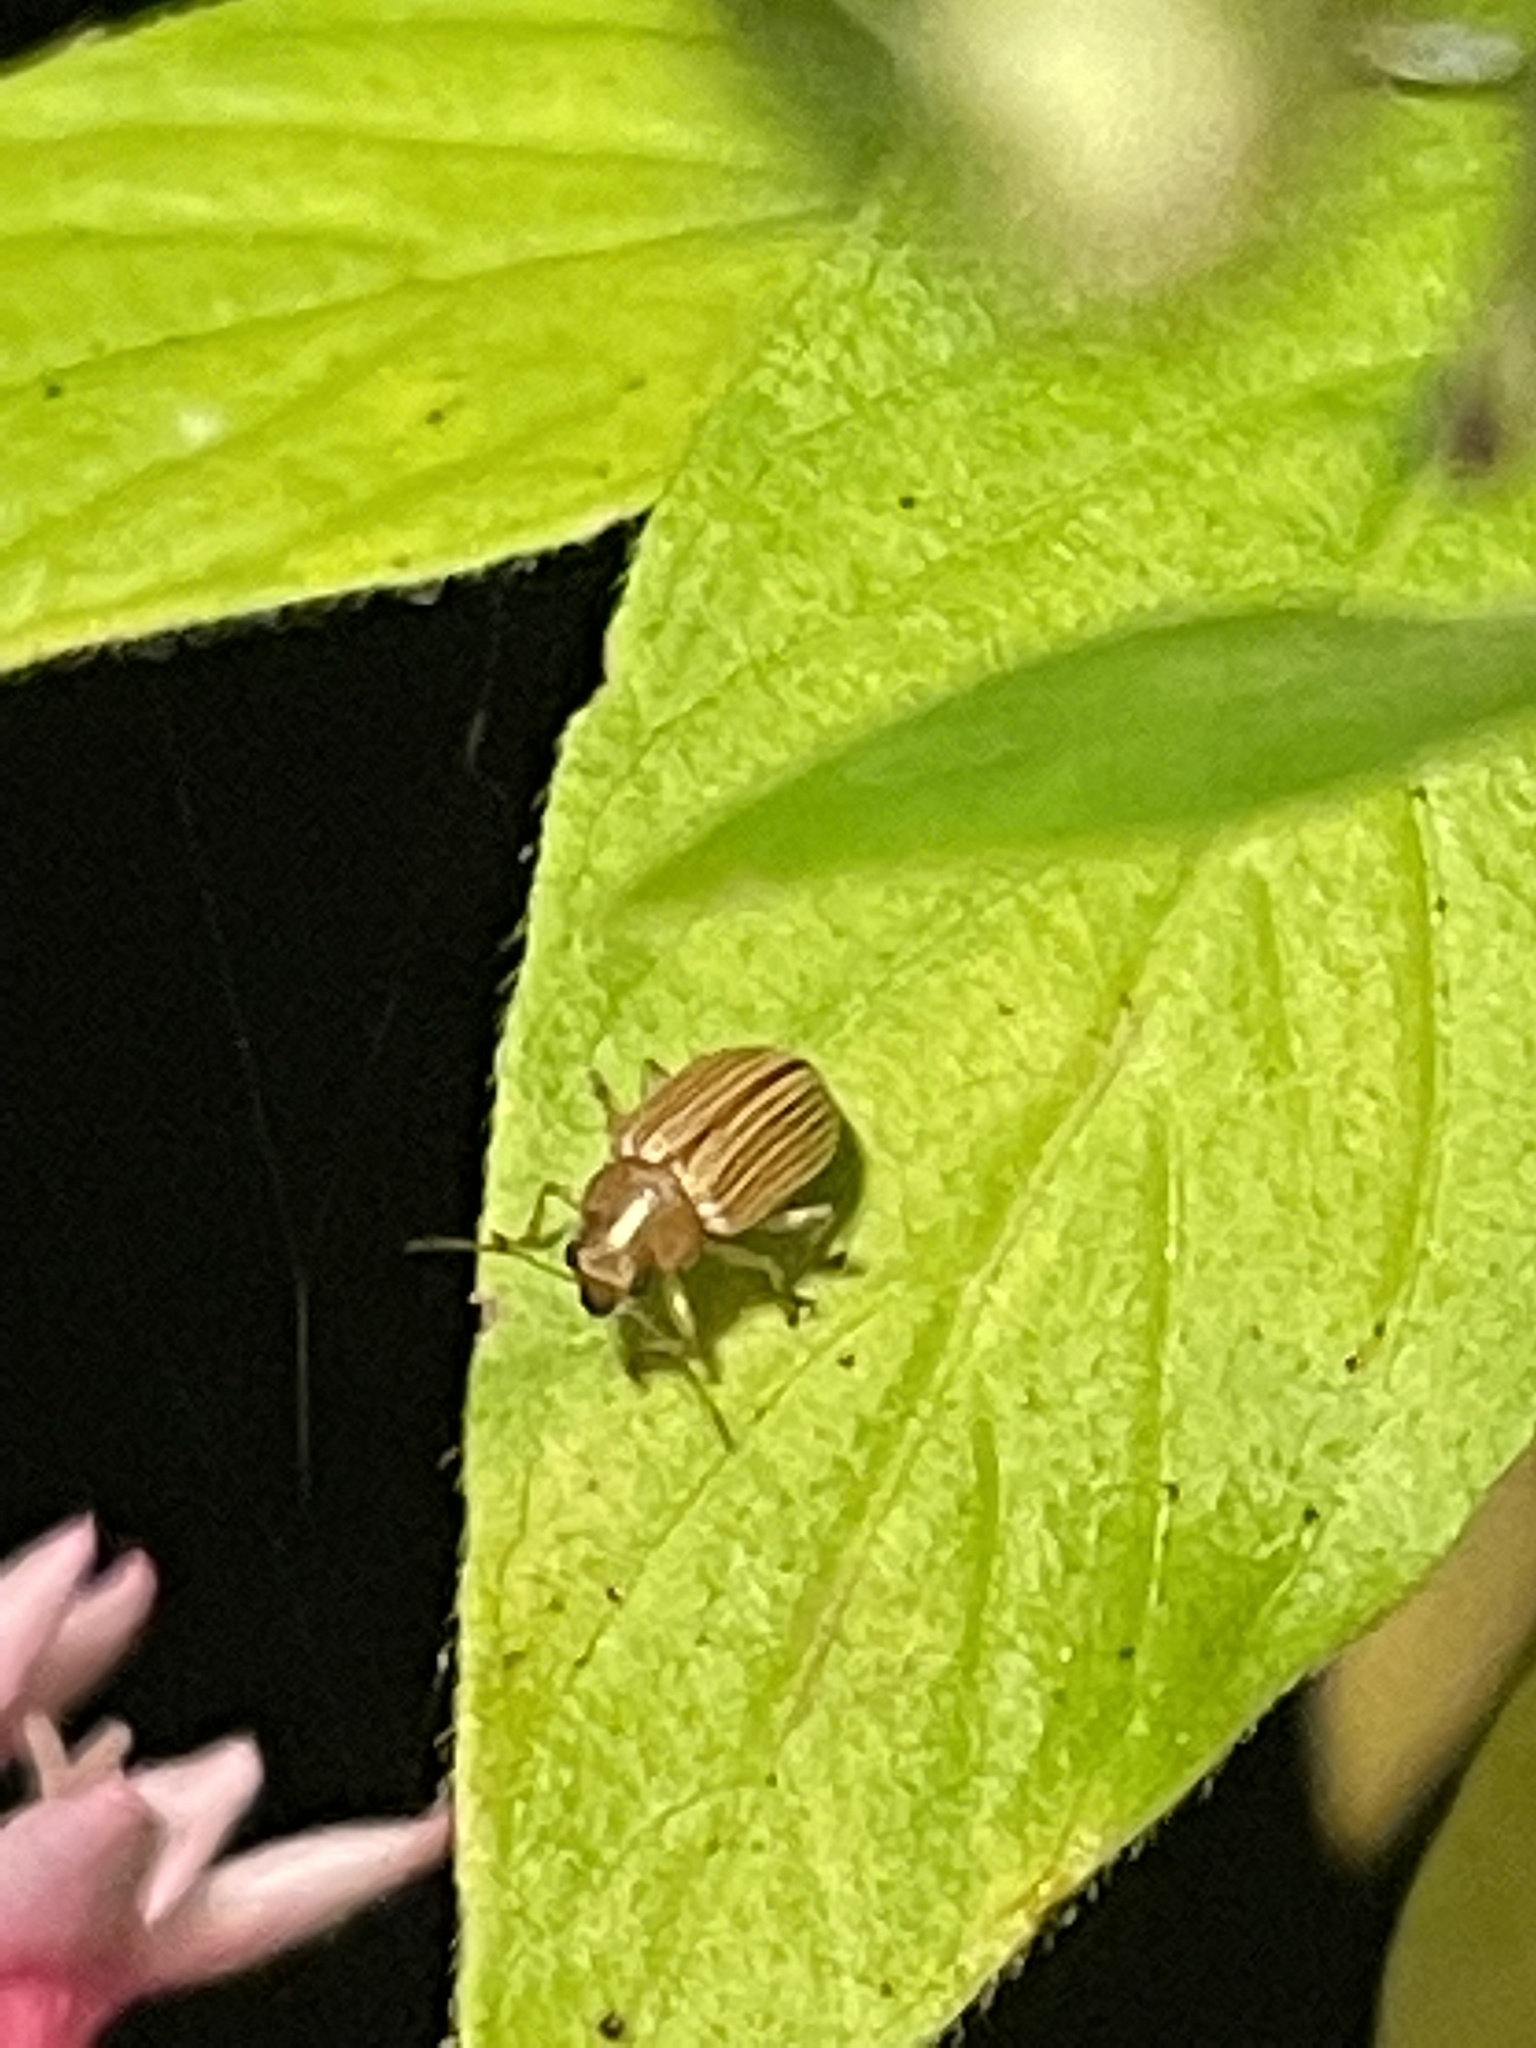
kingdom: Animalia
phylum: Arthropoda
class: Insecta
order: Coleoptera
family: Chrysomelidae
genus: Colaspis
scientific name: Colaspis brunnea
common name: Grape colaspis
